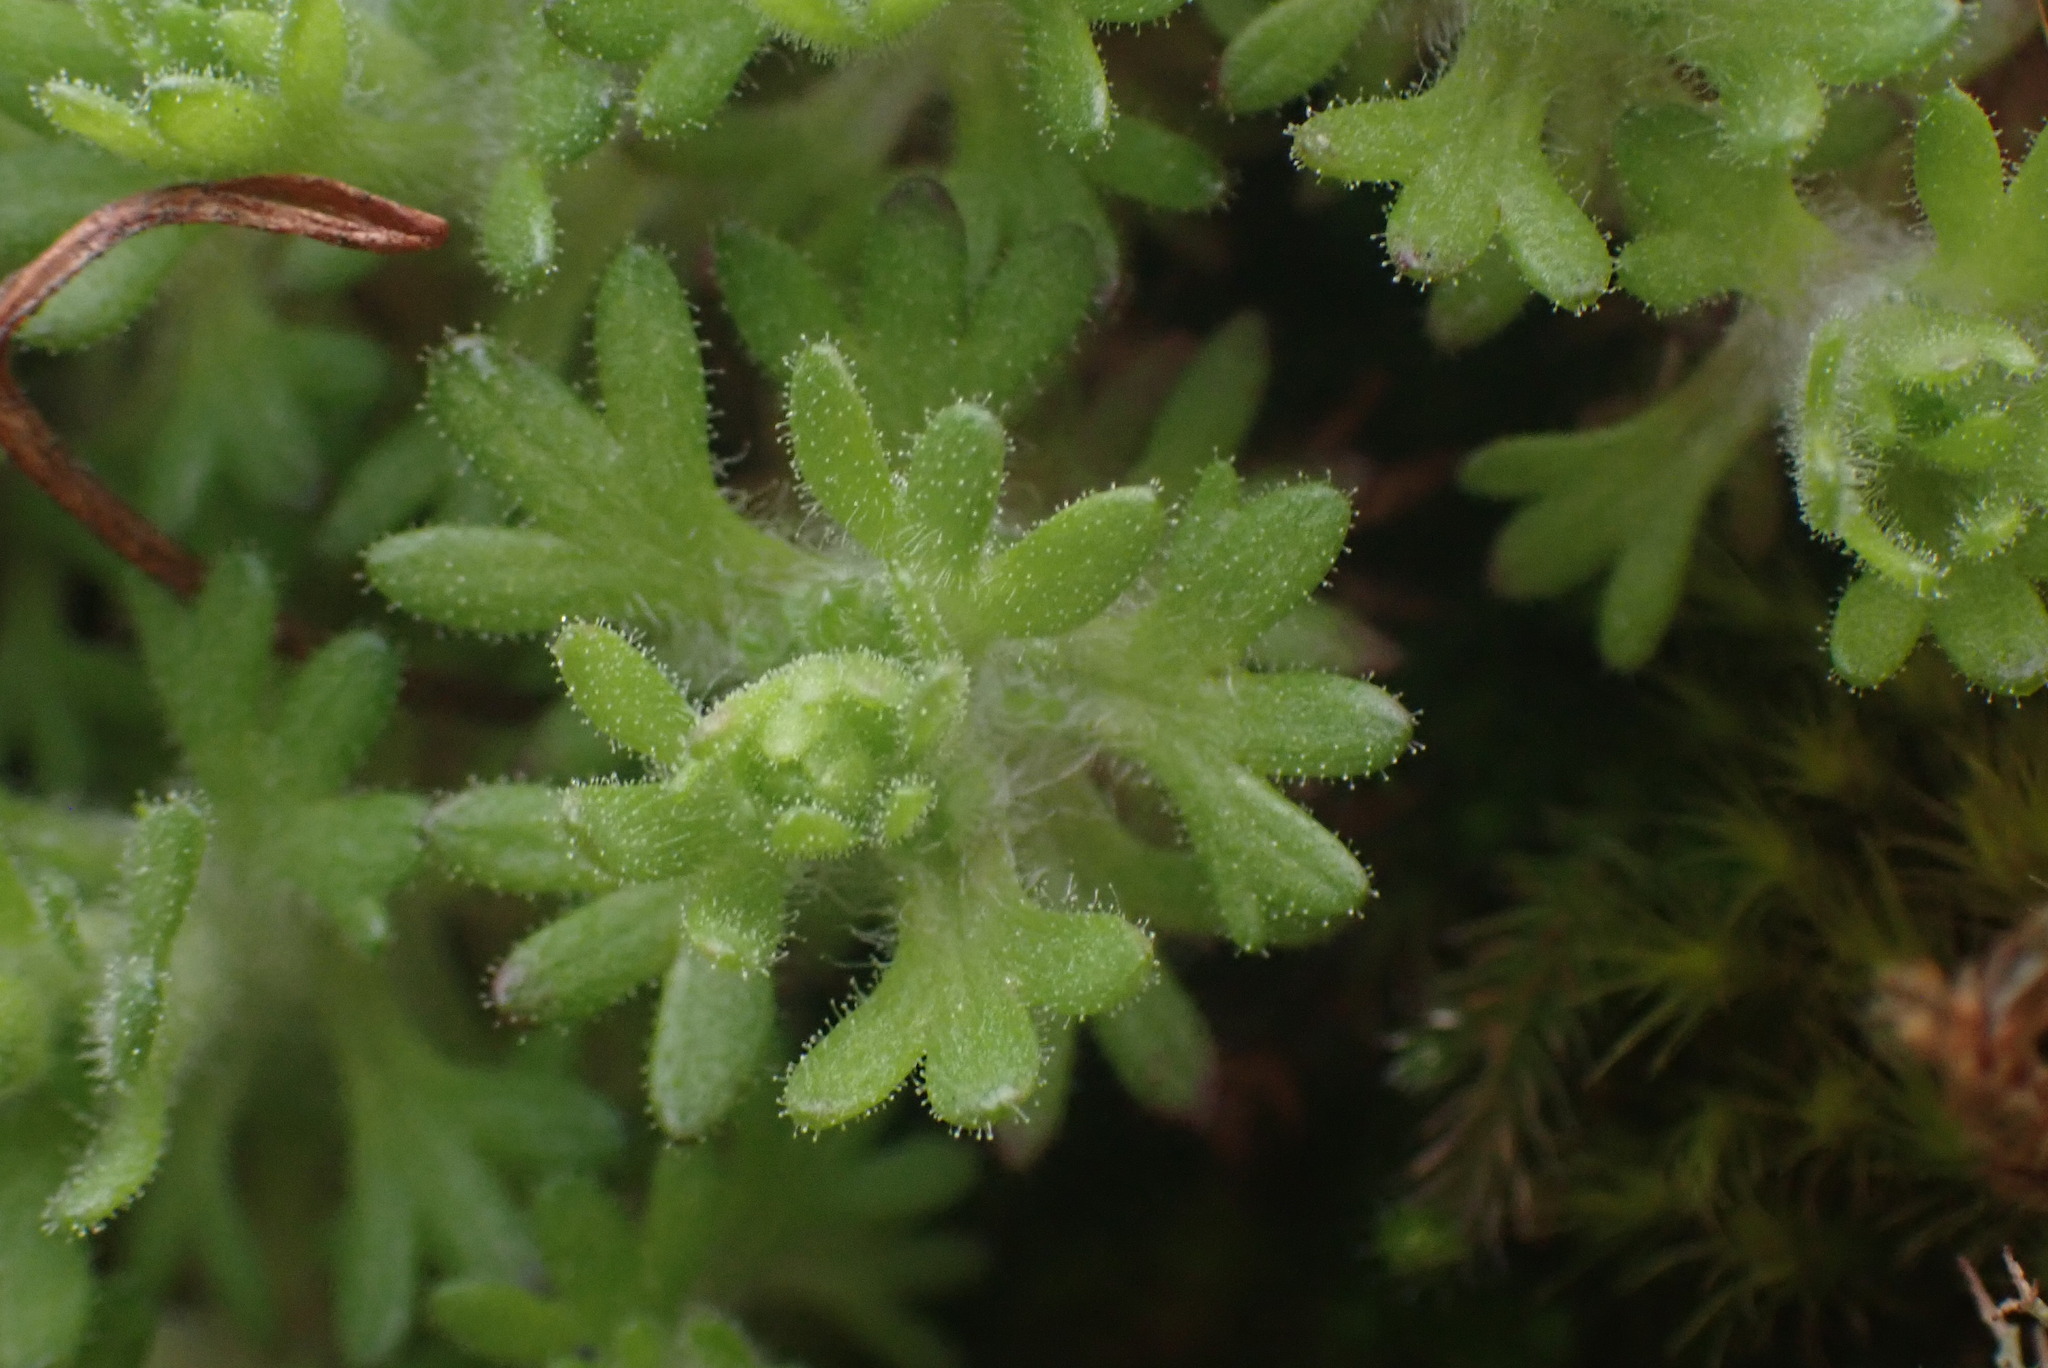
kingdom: Plantae
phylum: Tracheophyta
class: Magnoliopsida
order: Saxifragales
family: Saxifragaceae
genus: Saxifraga
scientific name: Saxifraga cespitosa
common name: Tufted saxifrage
